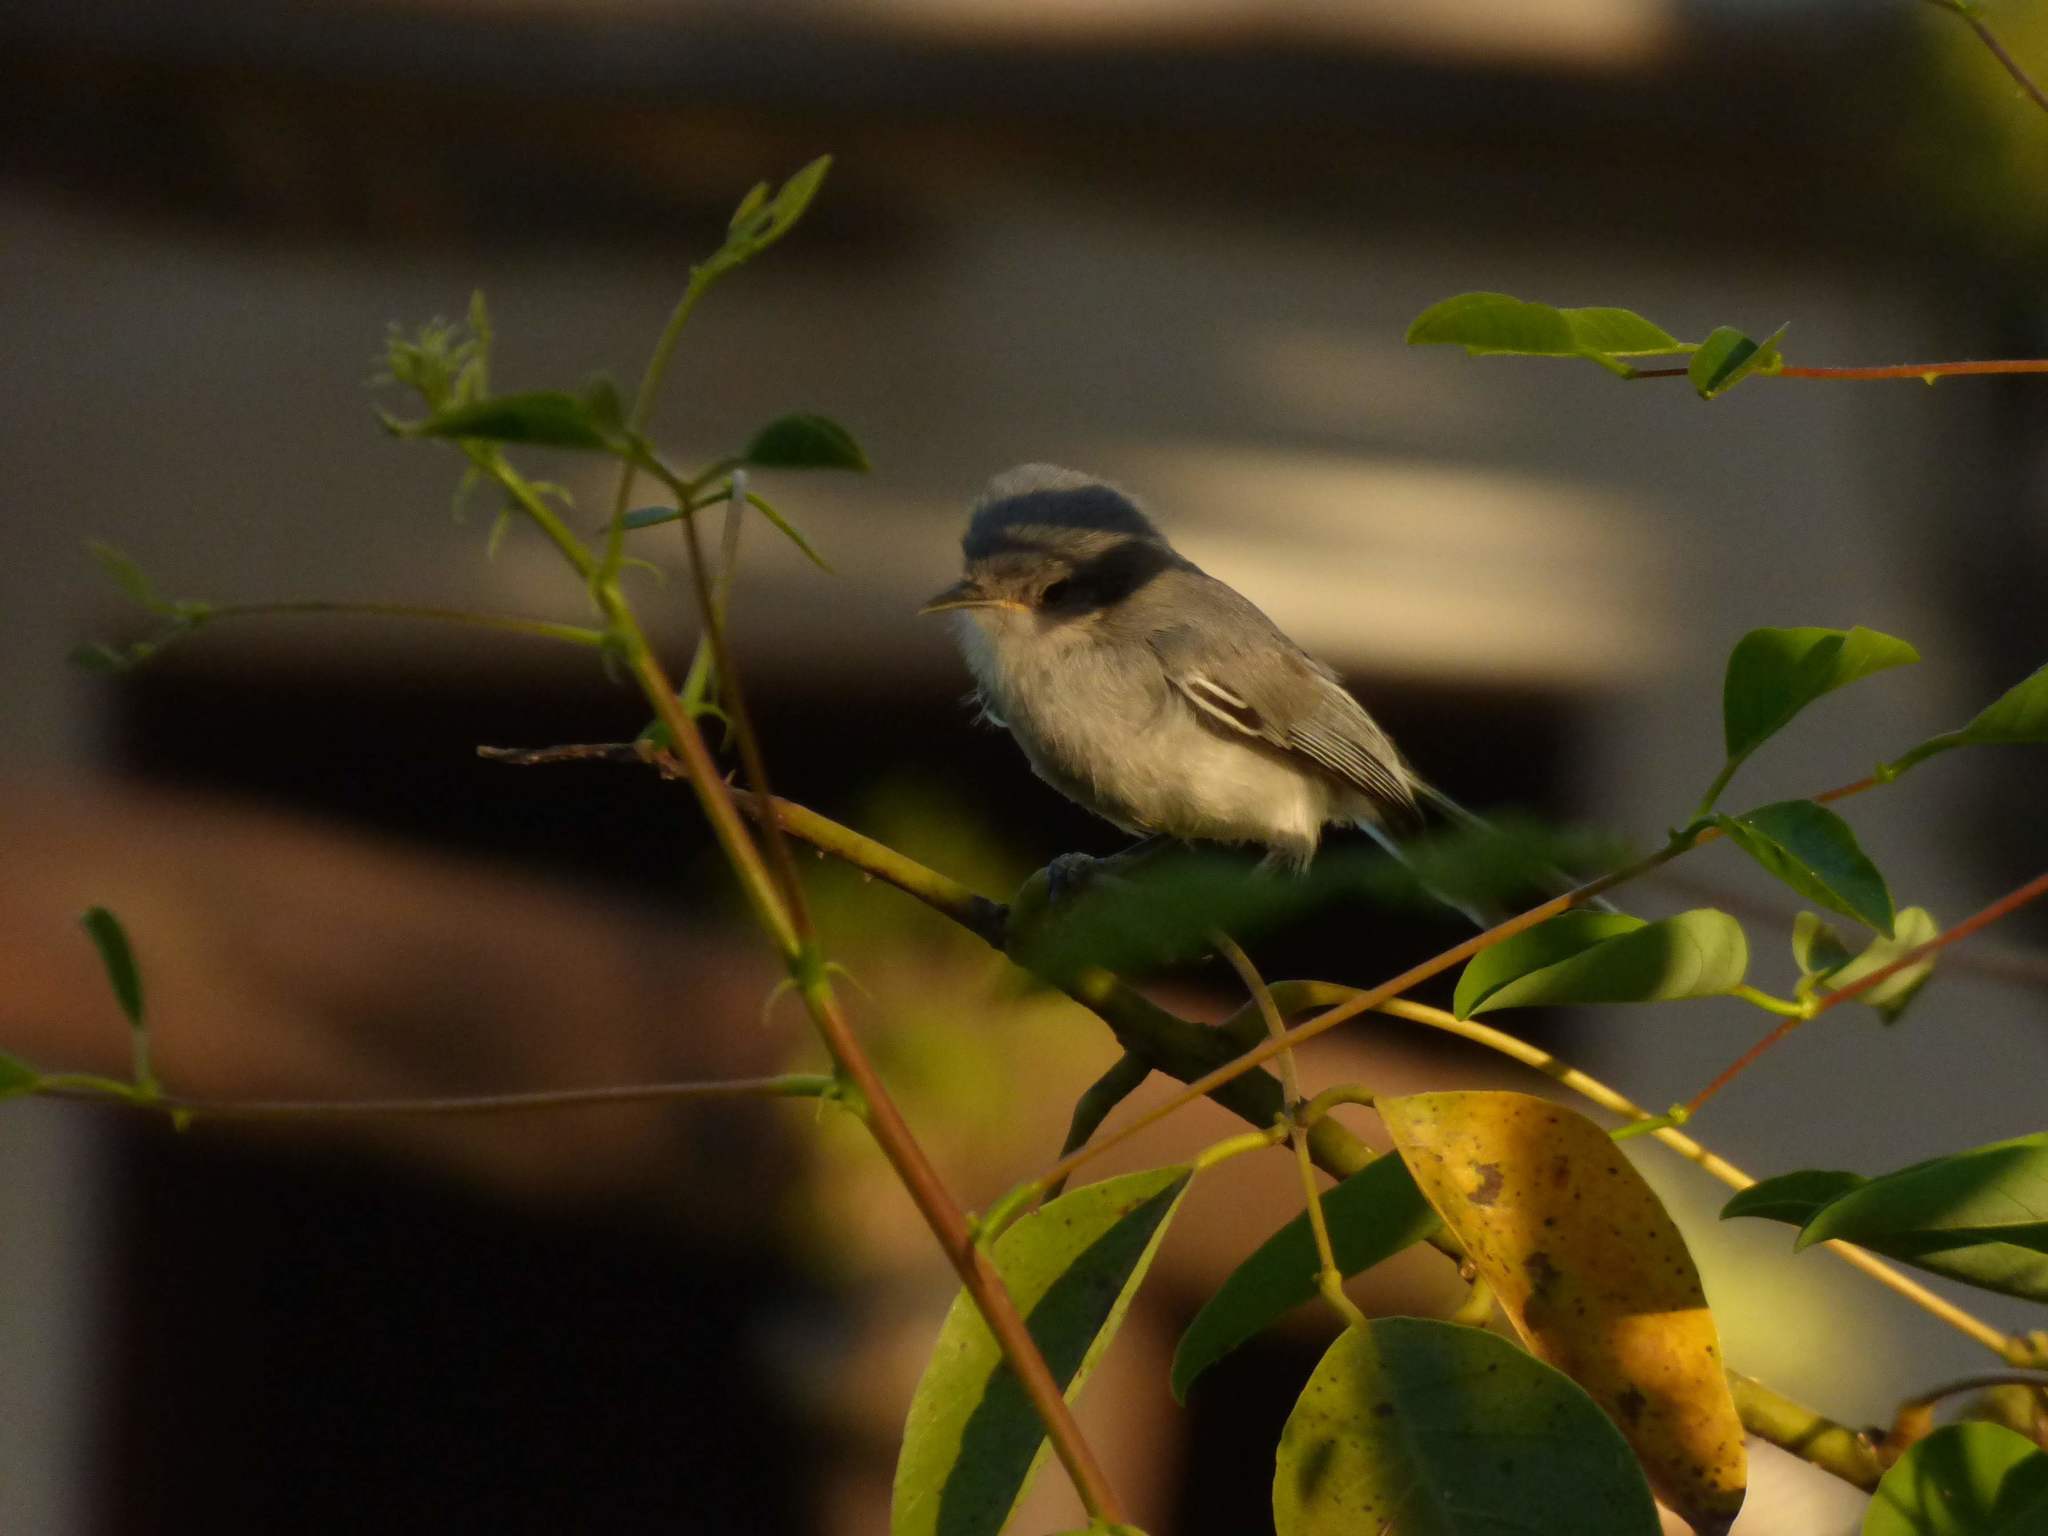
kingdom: Animalia
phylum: Chordata
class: Aves
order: Passeriformes
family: Polioptilidae
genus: Polioptila
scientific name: Polioptila dumicola
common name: Masked gnatcatcher
